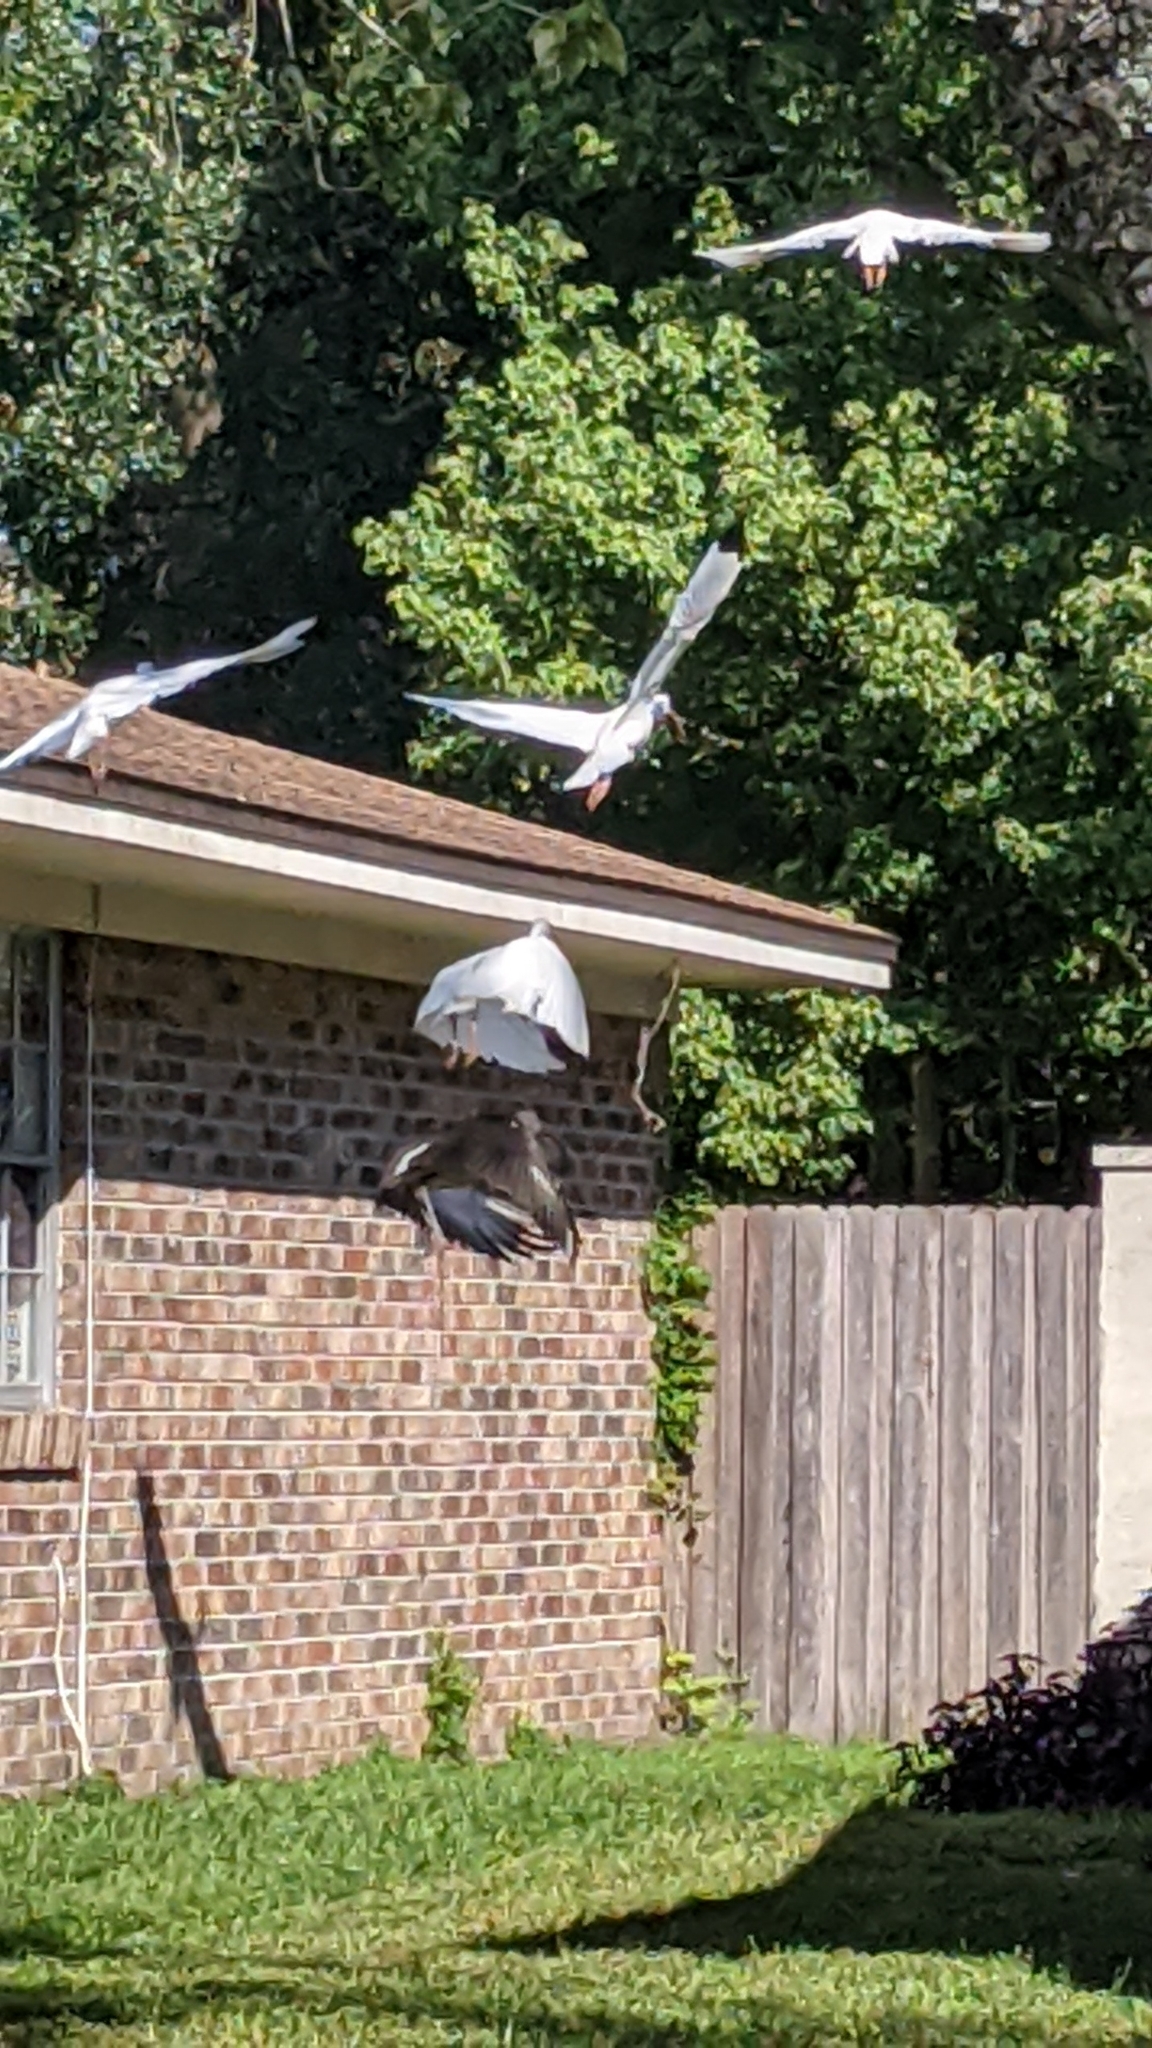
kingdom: Animalia
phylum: Chordata
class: Aves
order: Pelecaniformes
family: Threskiornithidae
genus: Eudocimus
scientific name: Eudocimus albus
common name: White ibis
